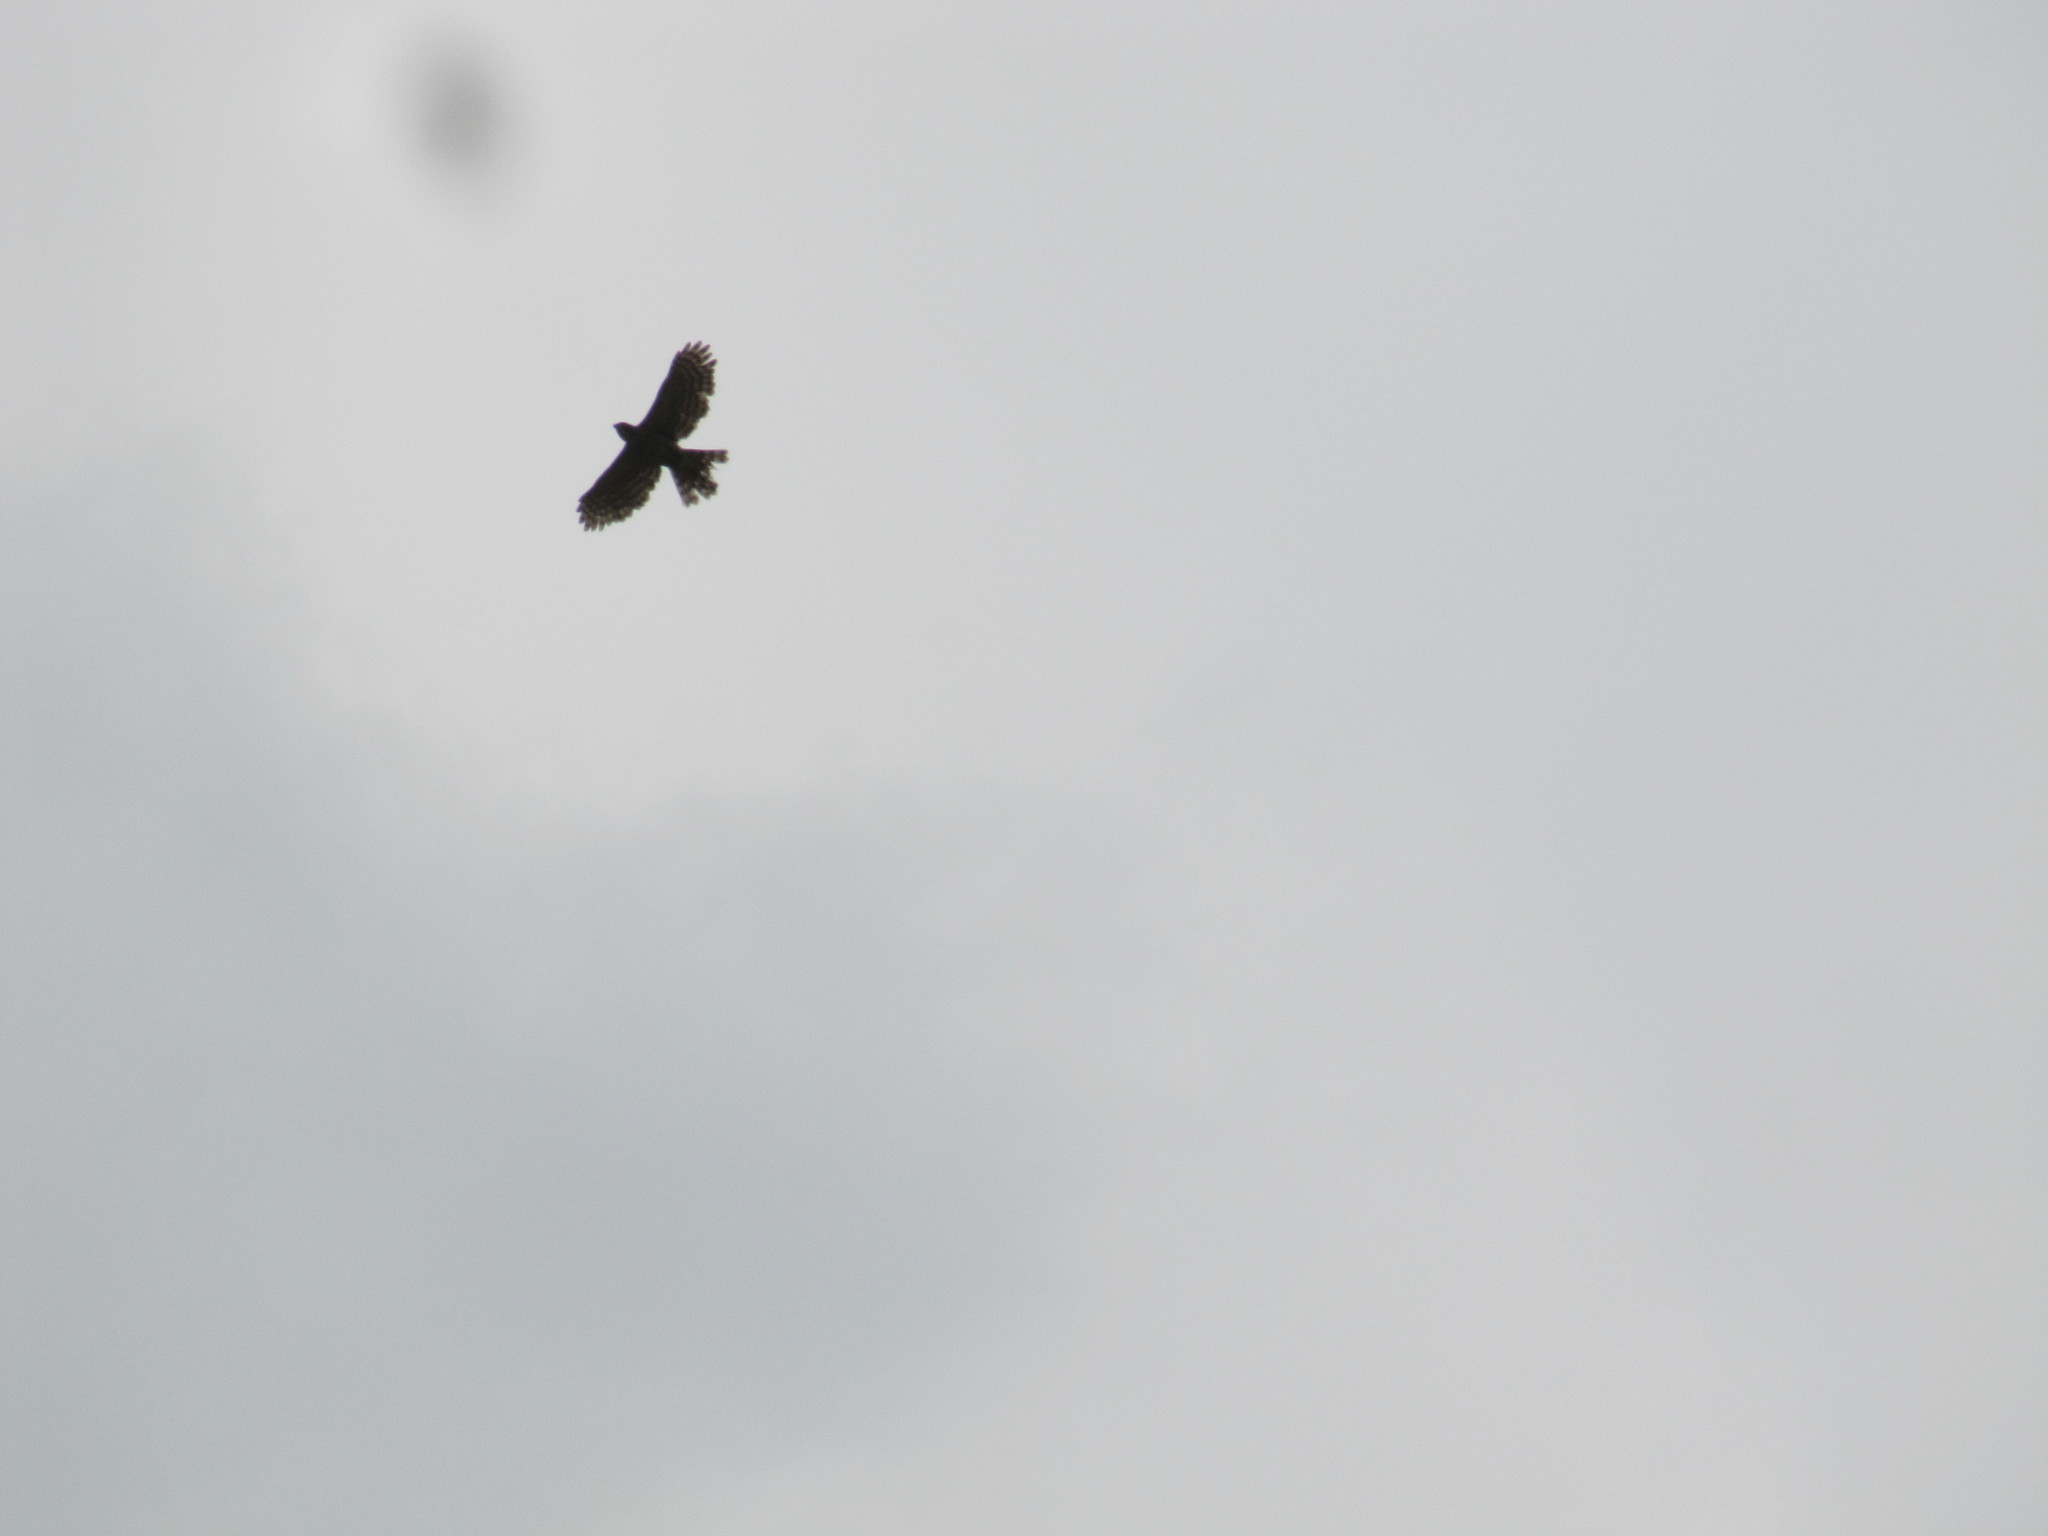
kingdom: Animalia
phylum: Chordata
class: Aves
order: Accipitriformes
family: Accipitridae
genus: Accipiter
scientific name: Accipiter trivirgatus
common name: Crested goshawk
